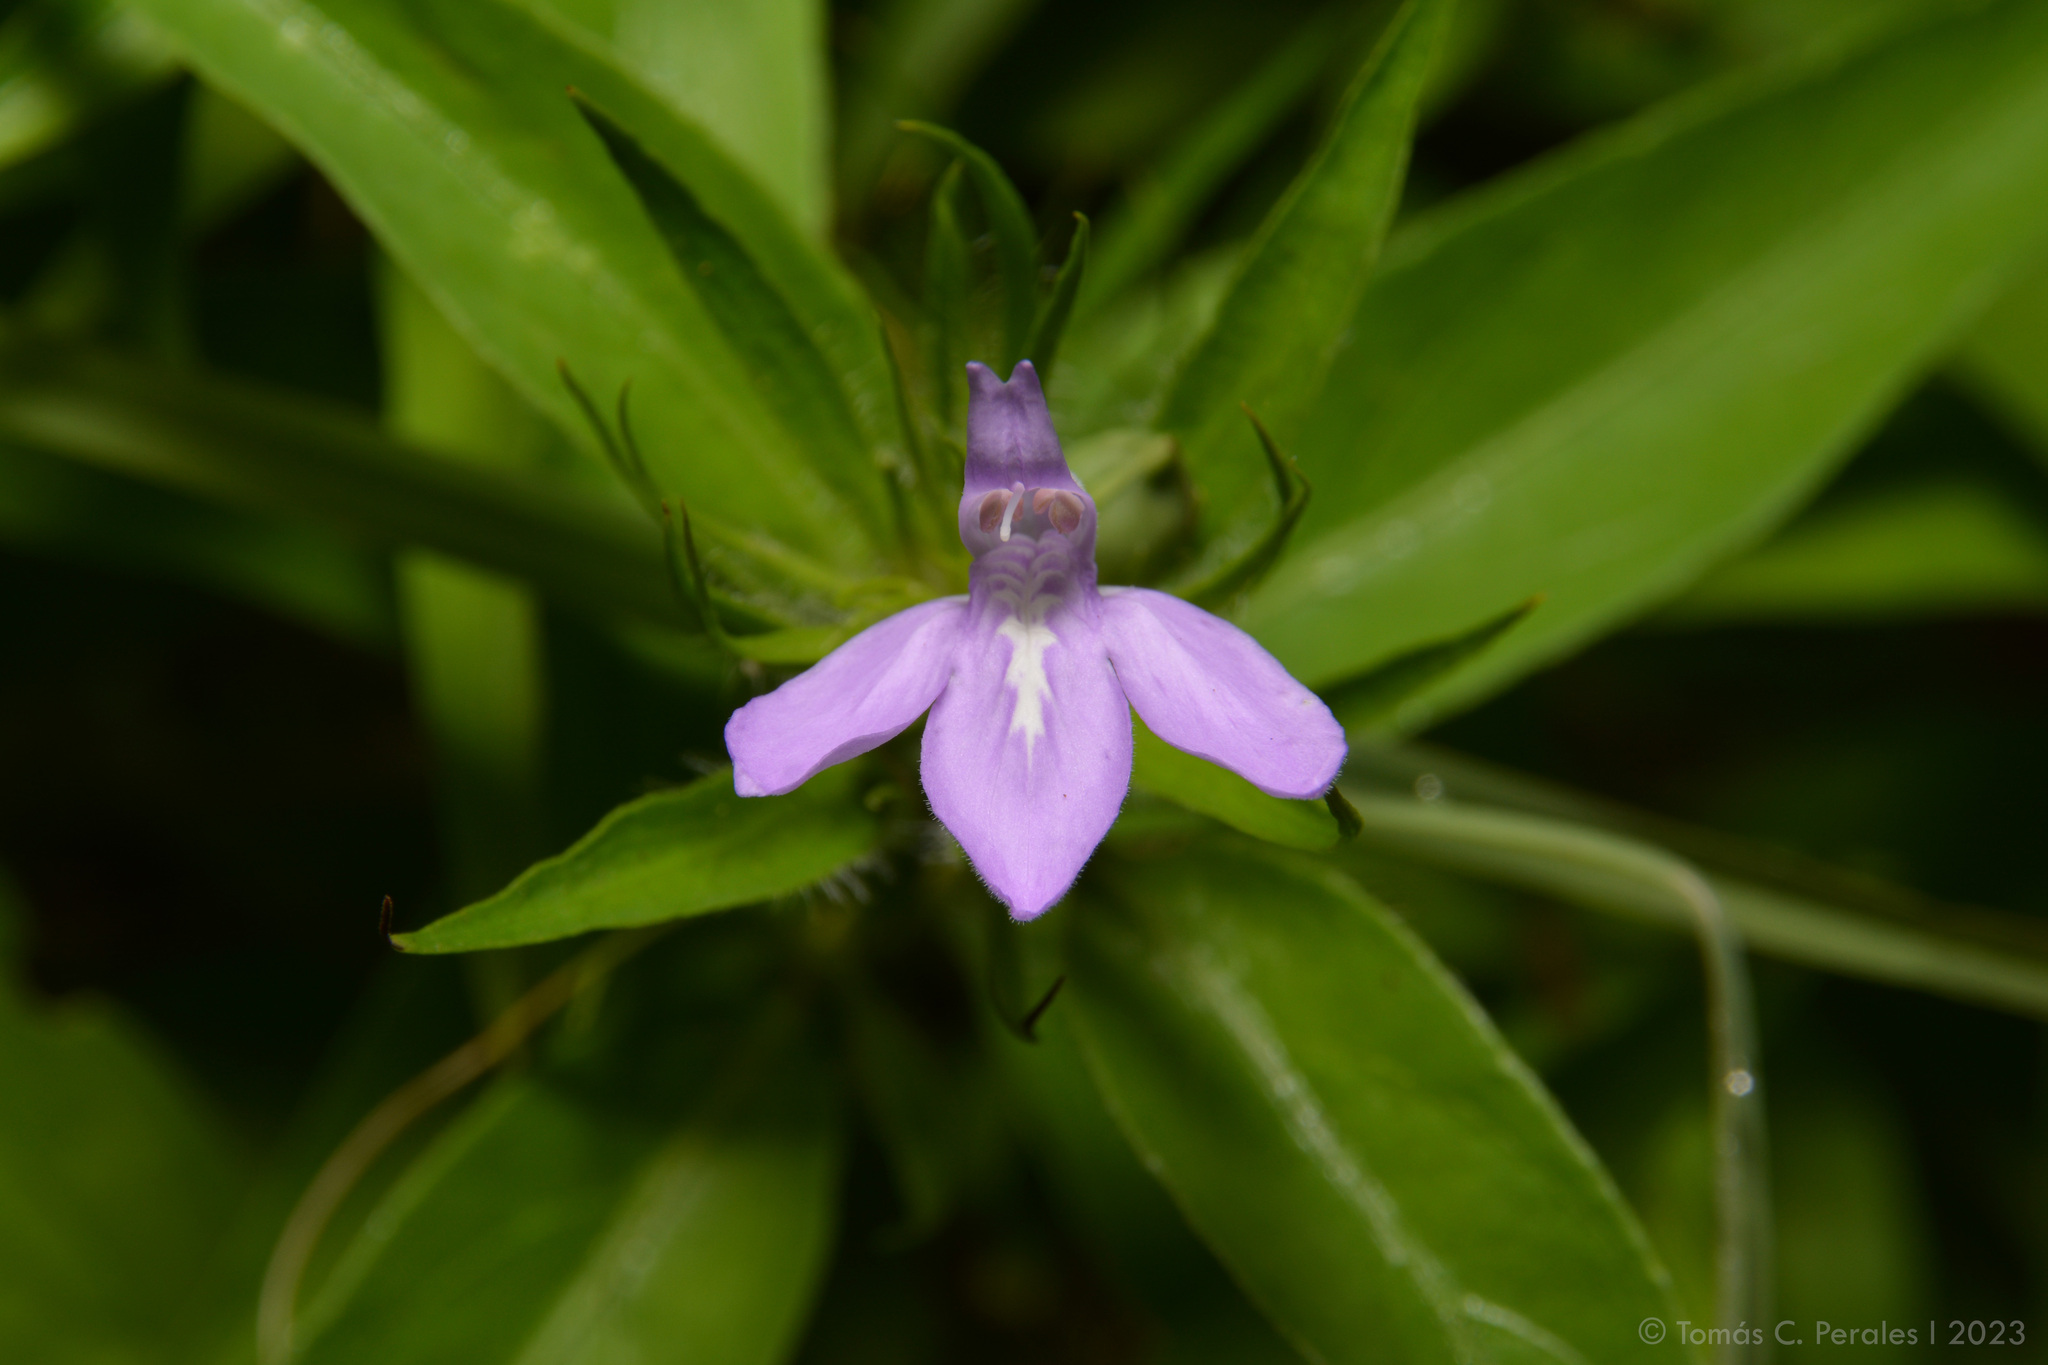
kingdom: Plantae
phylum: Tracheophyta
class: Magnoliopsida
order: Lamiales
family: Acanthaceae
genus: Justicia
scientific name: Justicia squarrosa
